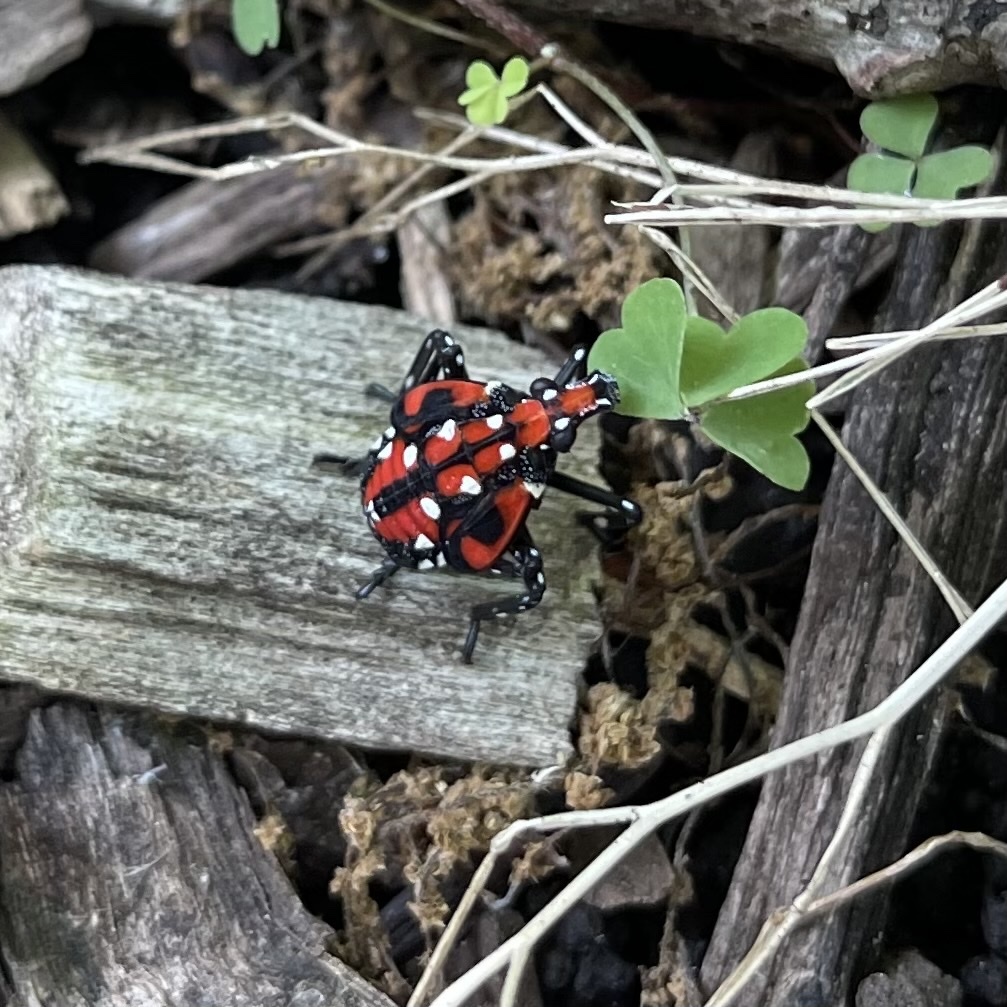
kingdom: Animalia
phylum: Arthropoda
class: Insecta
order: Hemiptera
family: Fulgoridae
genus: Lycorma
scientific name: Lycorma delicatula
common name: Spotted lanternfly
